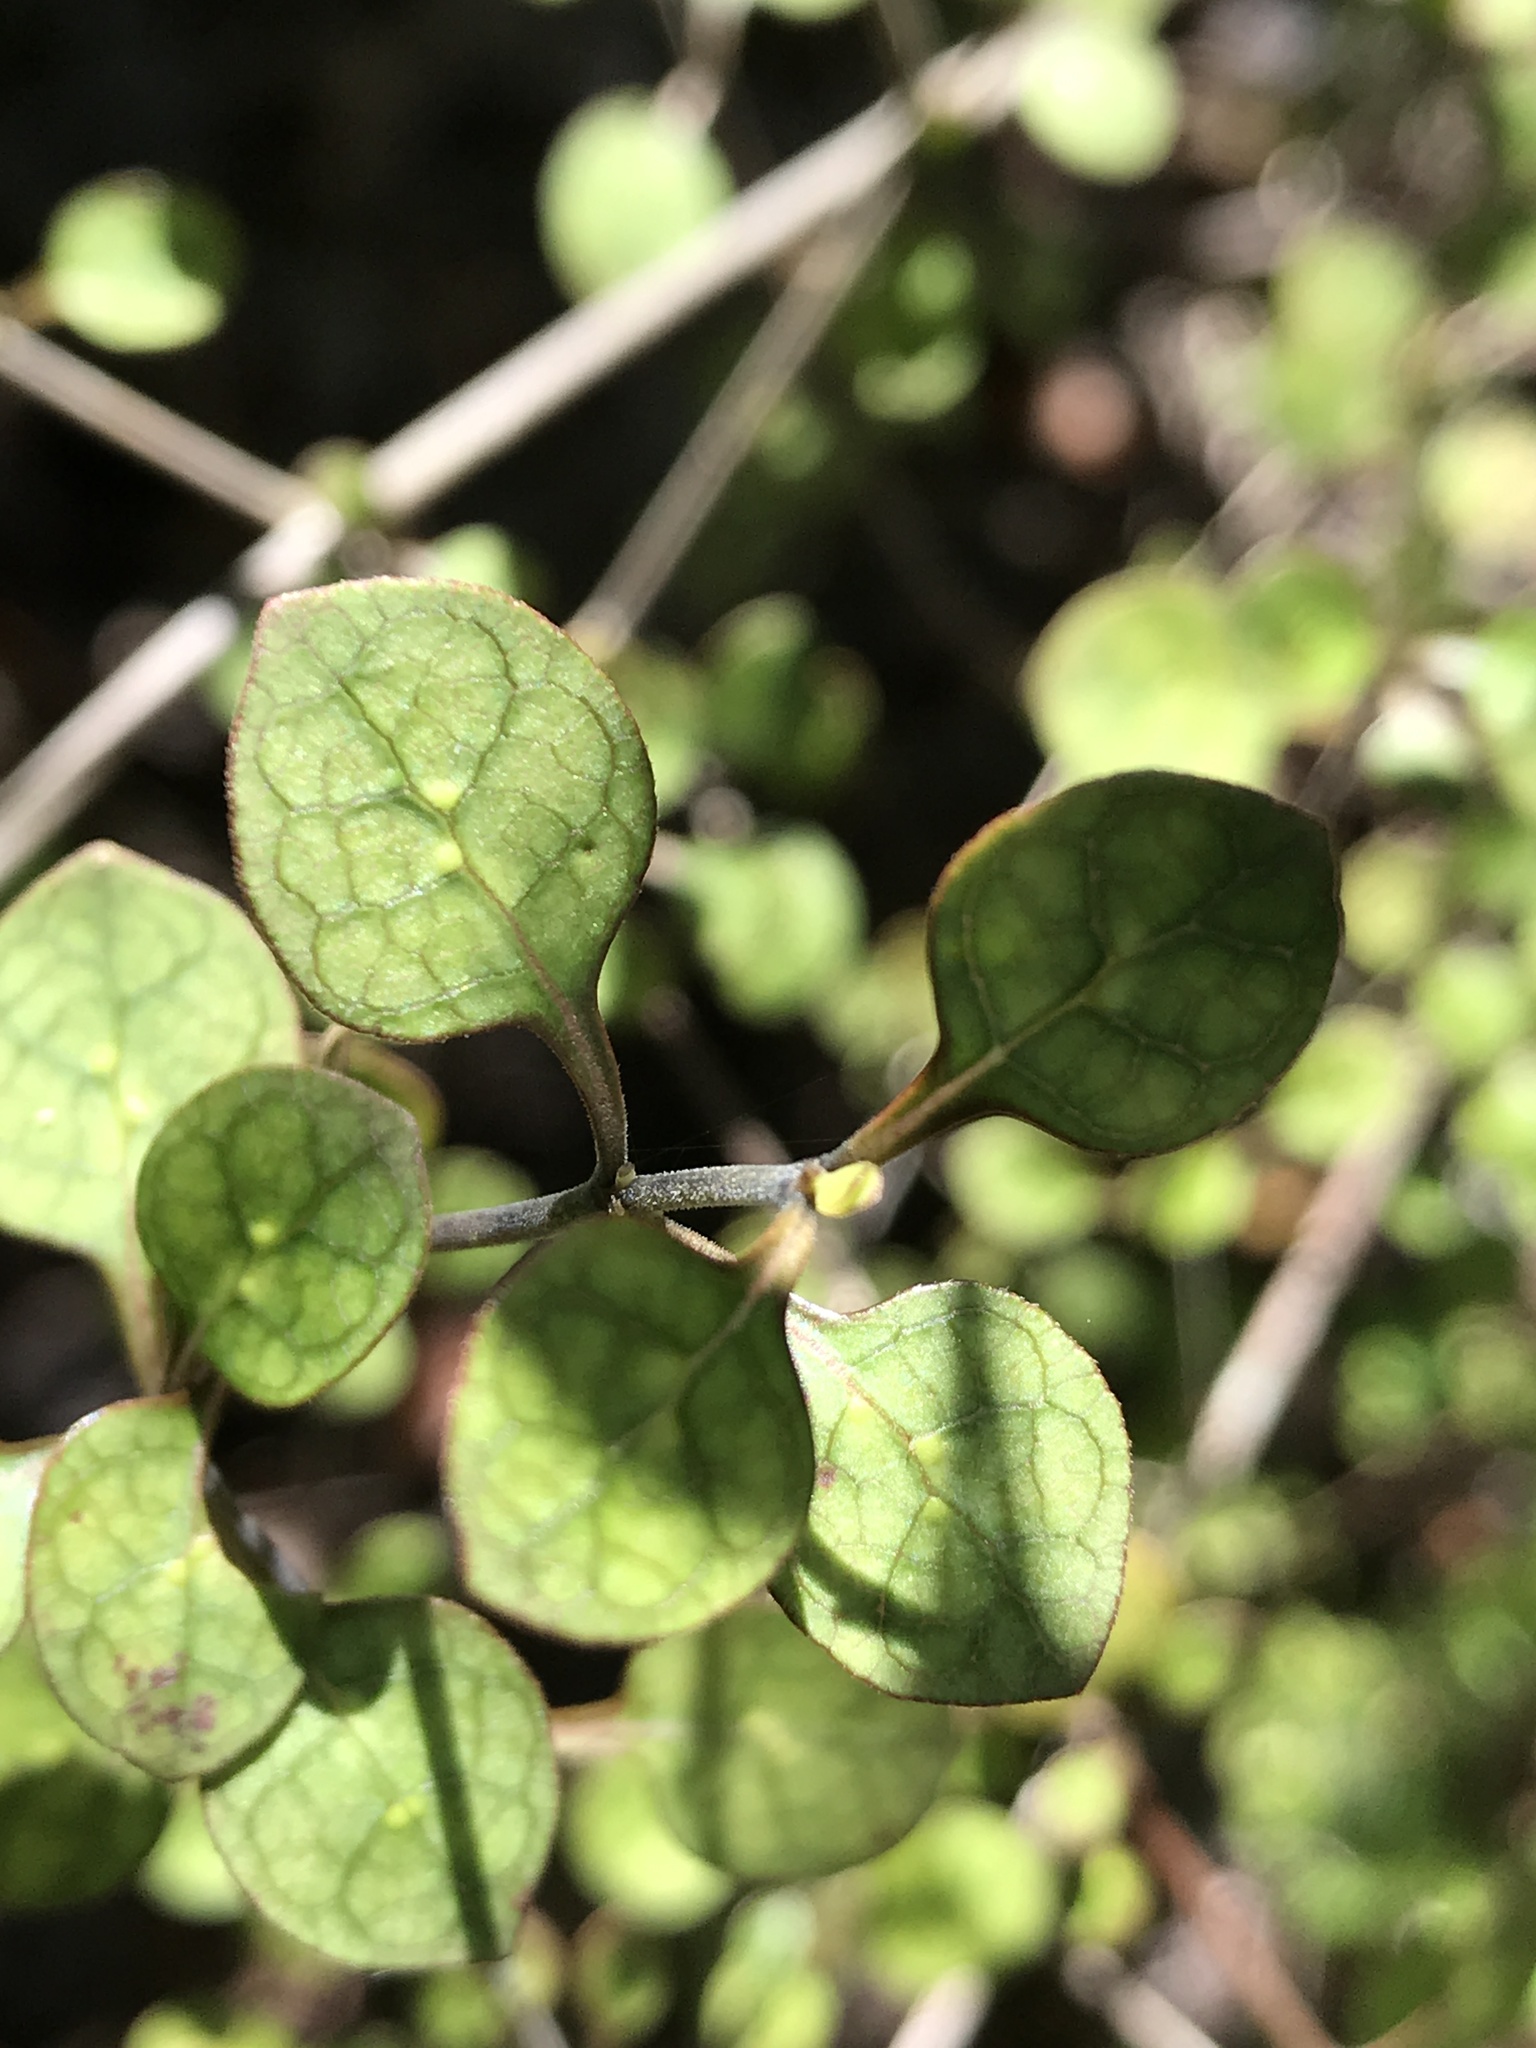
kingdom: Plantae
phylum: Tracheophyta
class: Magnoliopsida
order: Gentianales
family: Rubiaceae
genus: Coprosma
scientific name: Coprosma tenuicaulis
